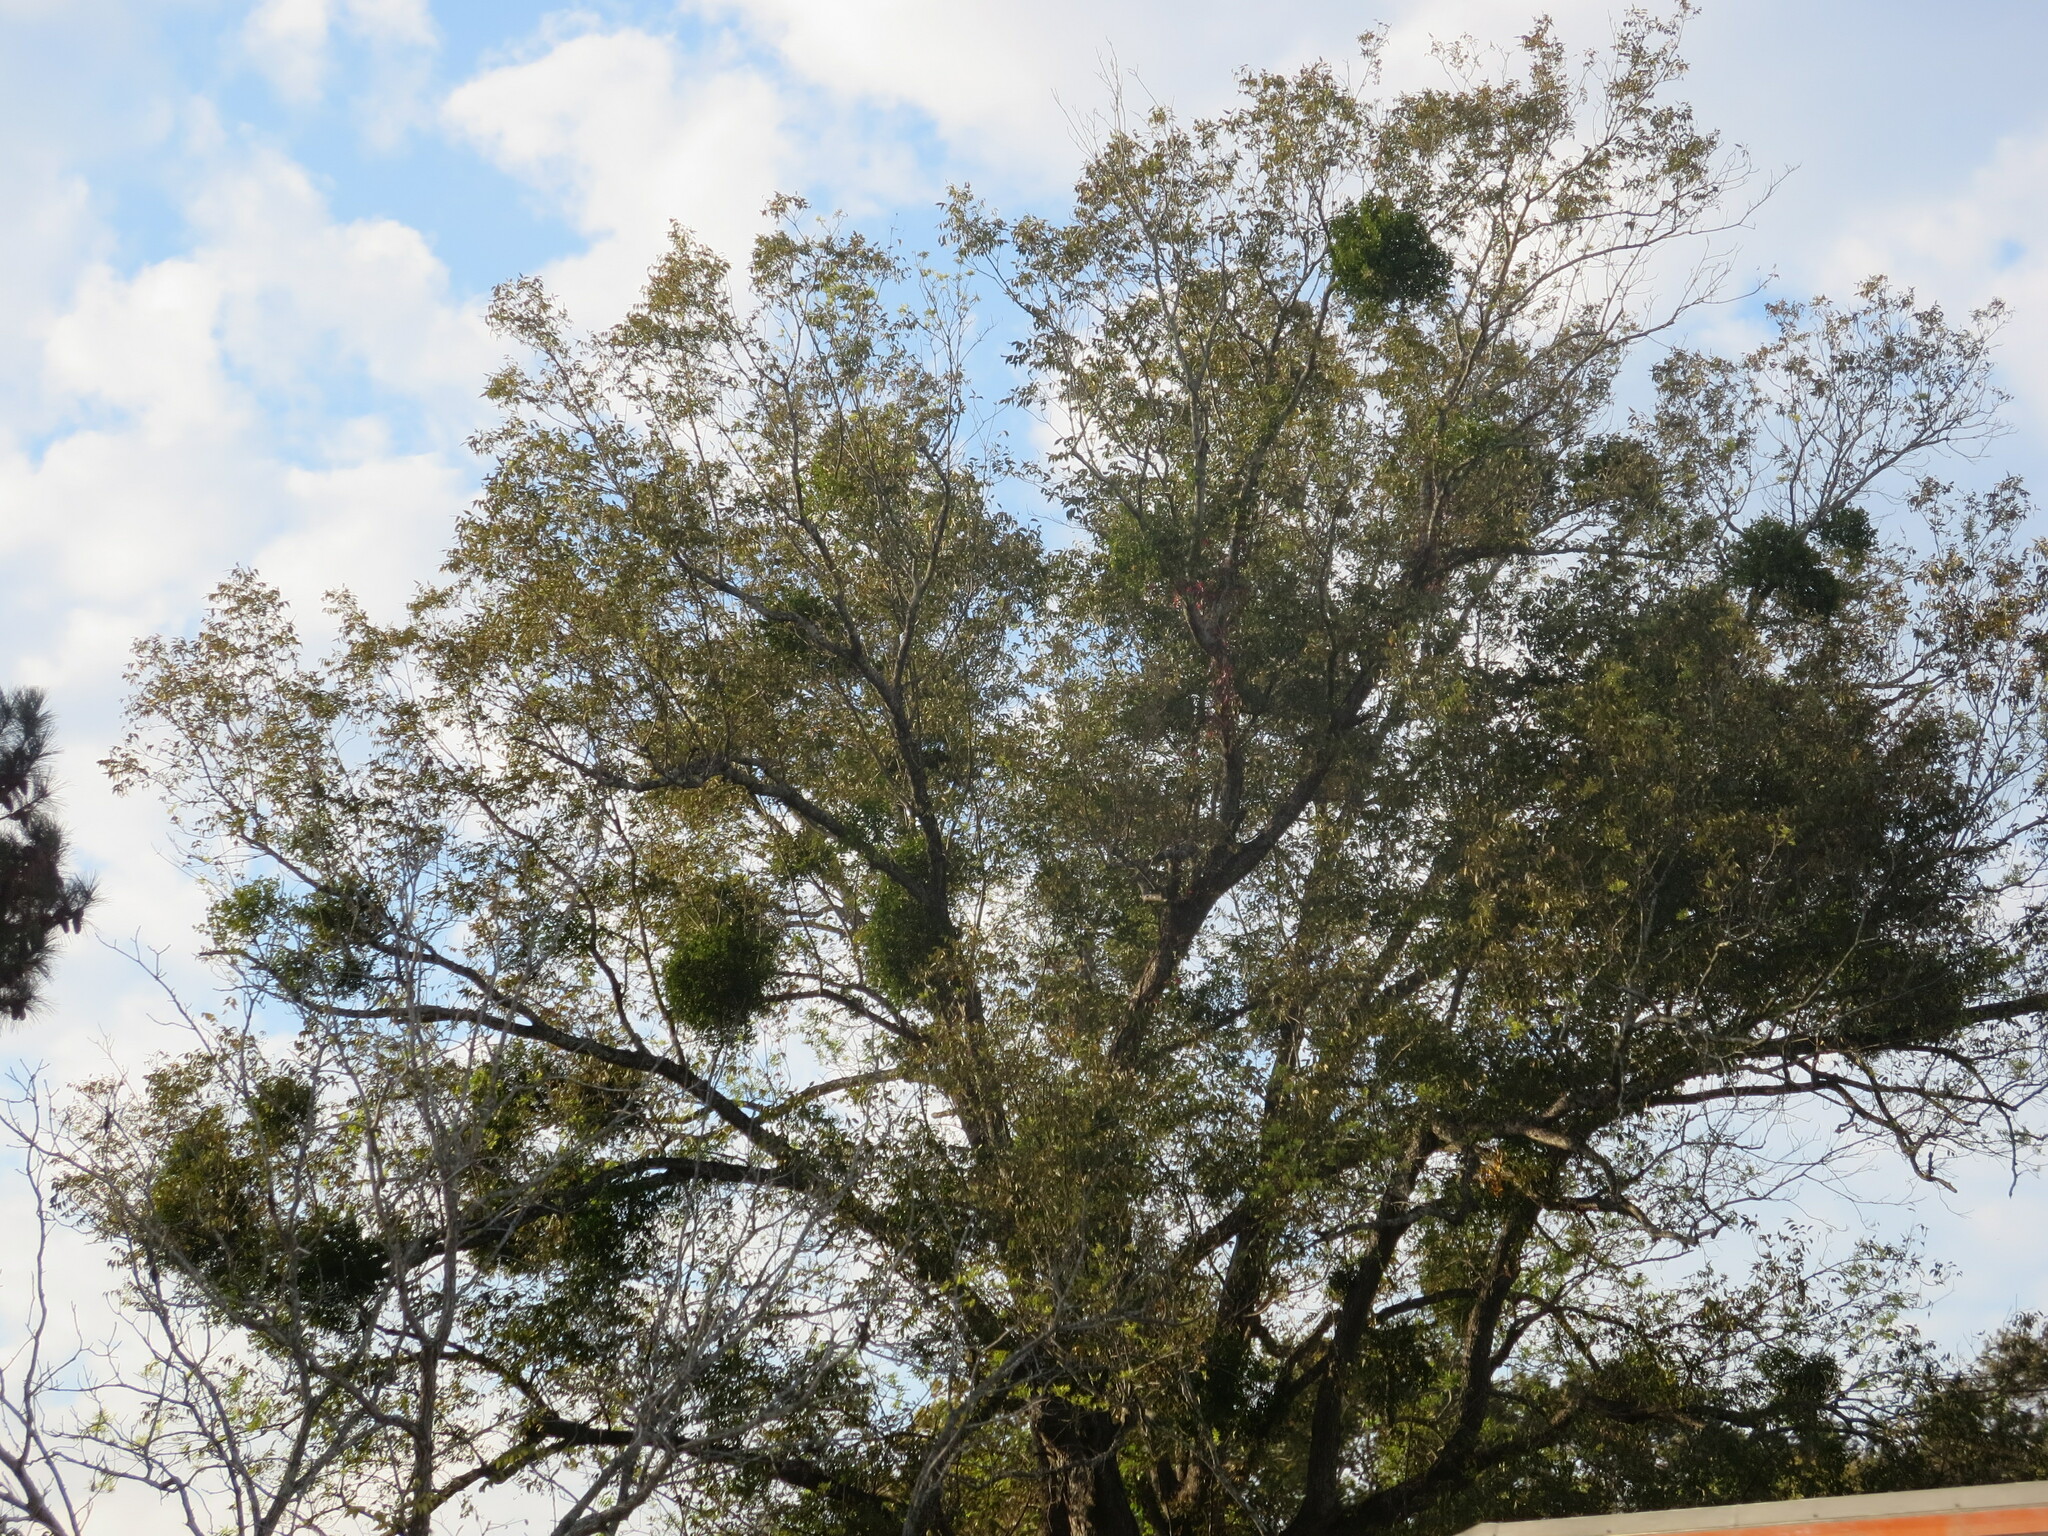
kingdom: Plantae
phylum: Tracheophyta
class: Magnoliopsida
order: Santalales
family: Viscaceae
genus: Phoradendron
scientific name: Phoradendron leucarpum
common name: Pacific mistletoe
